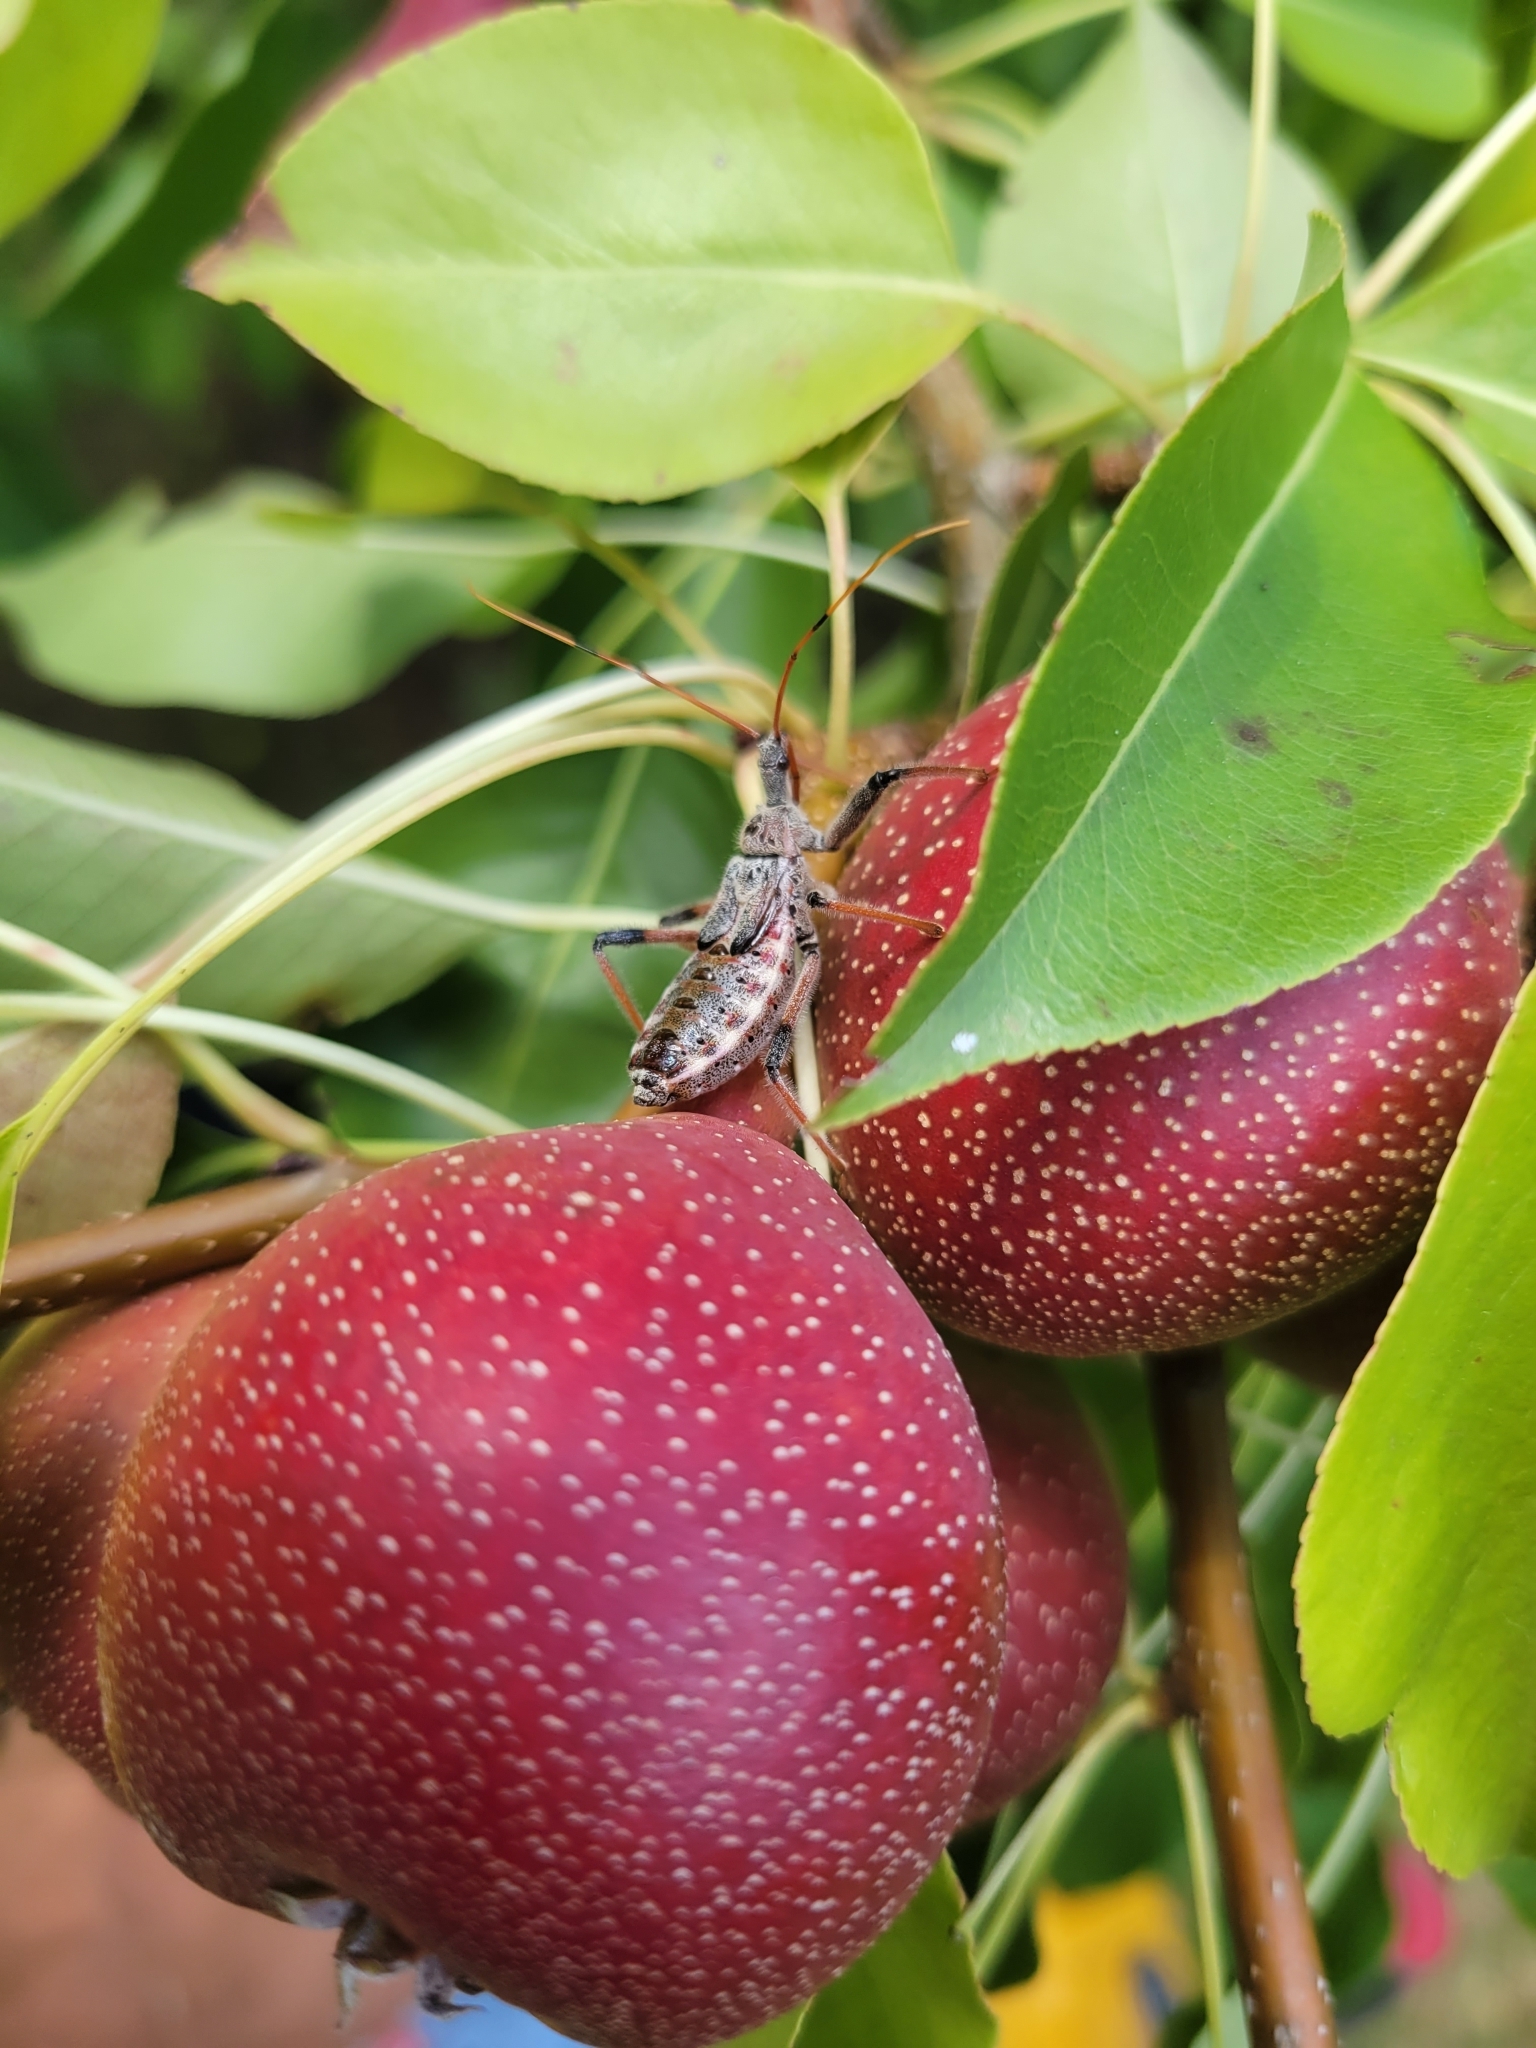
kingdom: Animalia
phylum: Arthropoda
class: Insecta
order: Hemiptera
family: Reduviidae
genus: Arilus
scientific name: Arilus cristatus
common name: North american wheel bug
